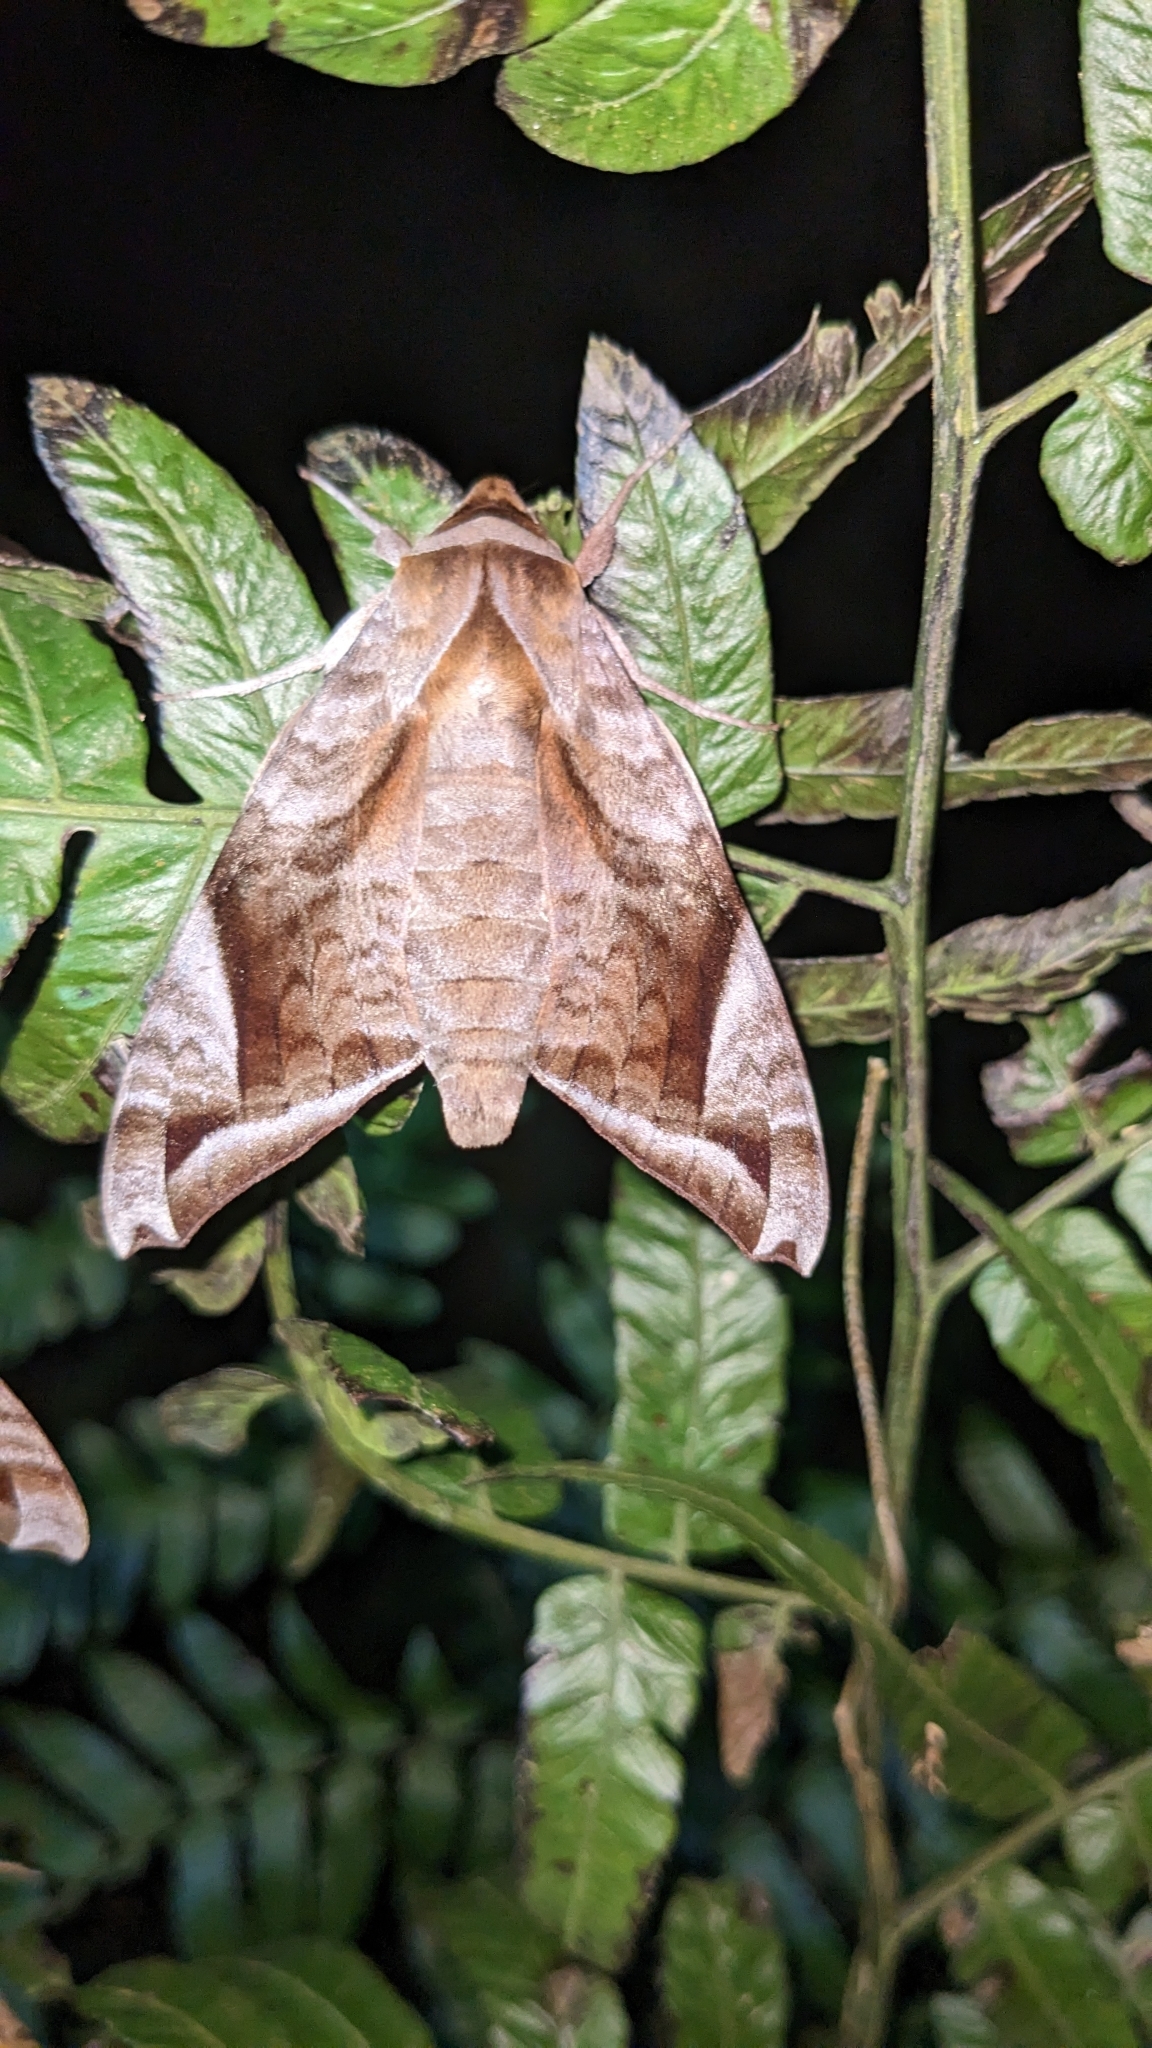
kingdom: Animalia
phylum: Arthropoda
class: Insecta
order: Lepidoptera
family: Sphingidae
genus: Acosmeryx
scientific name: Acosmeryx naga
